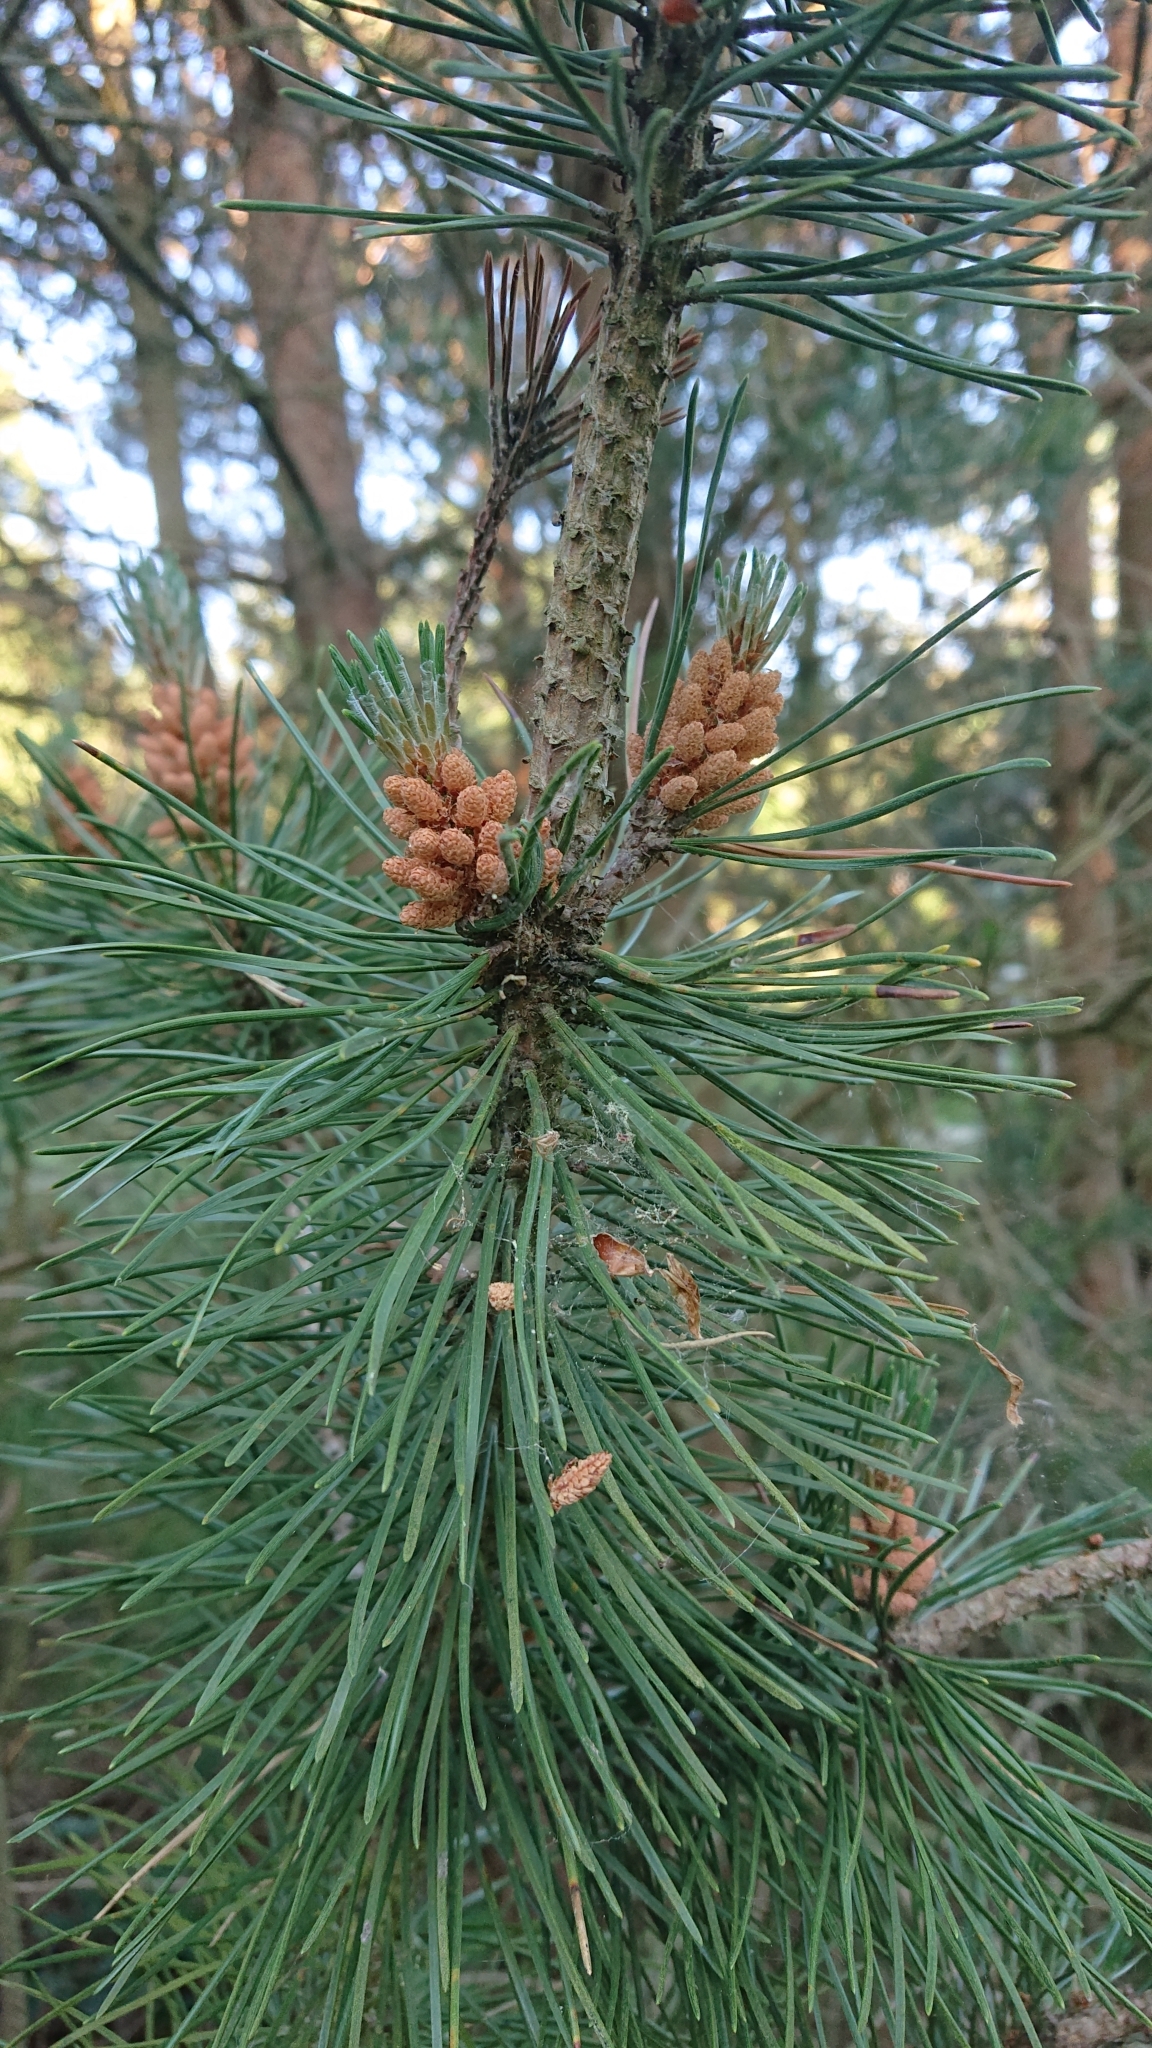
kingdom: Plantae
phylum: Tracheophyta
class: Pinopsida
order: Pinales
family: Pinaceae
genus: Pinus
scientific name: Pinus sylvestris
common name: Scots pine
